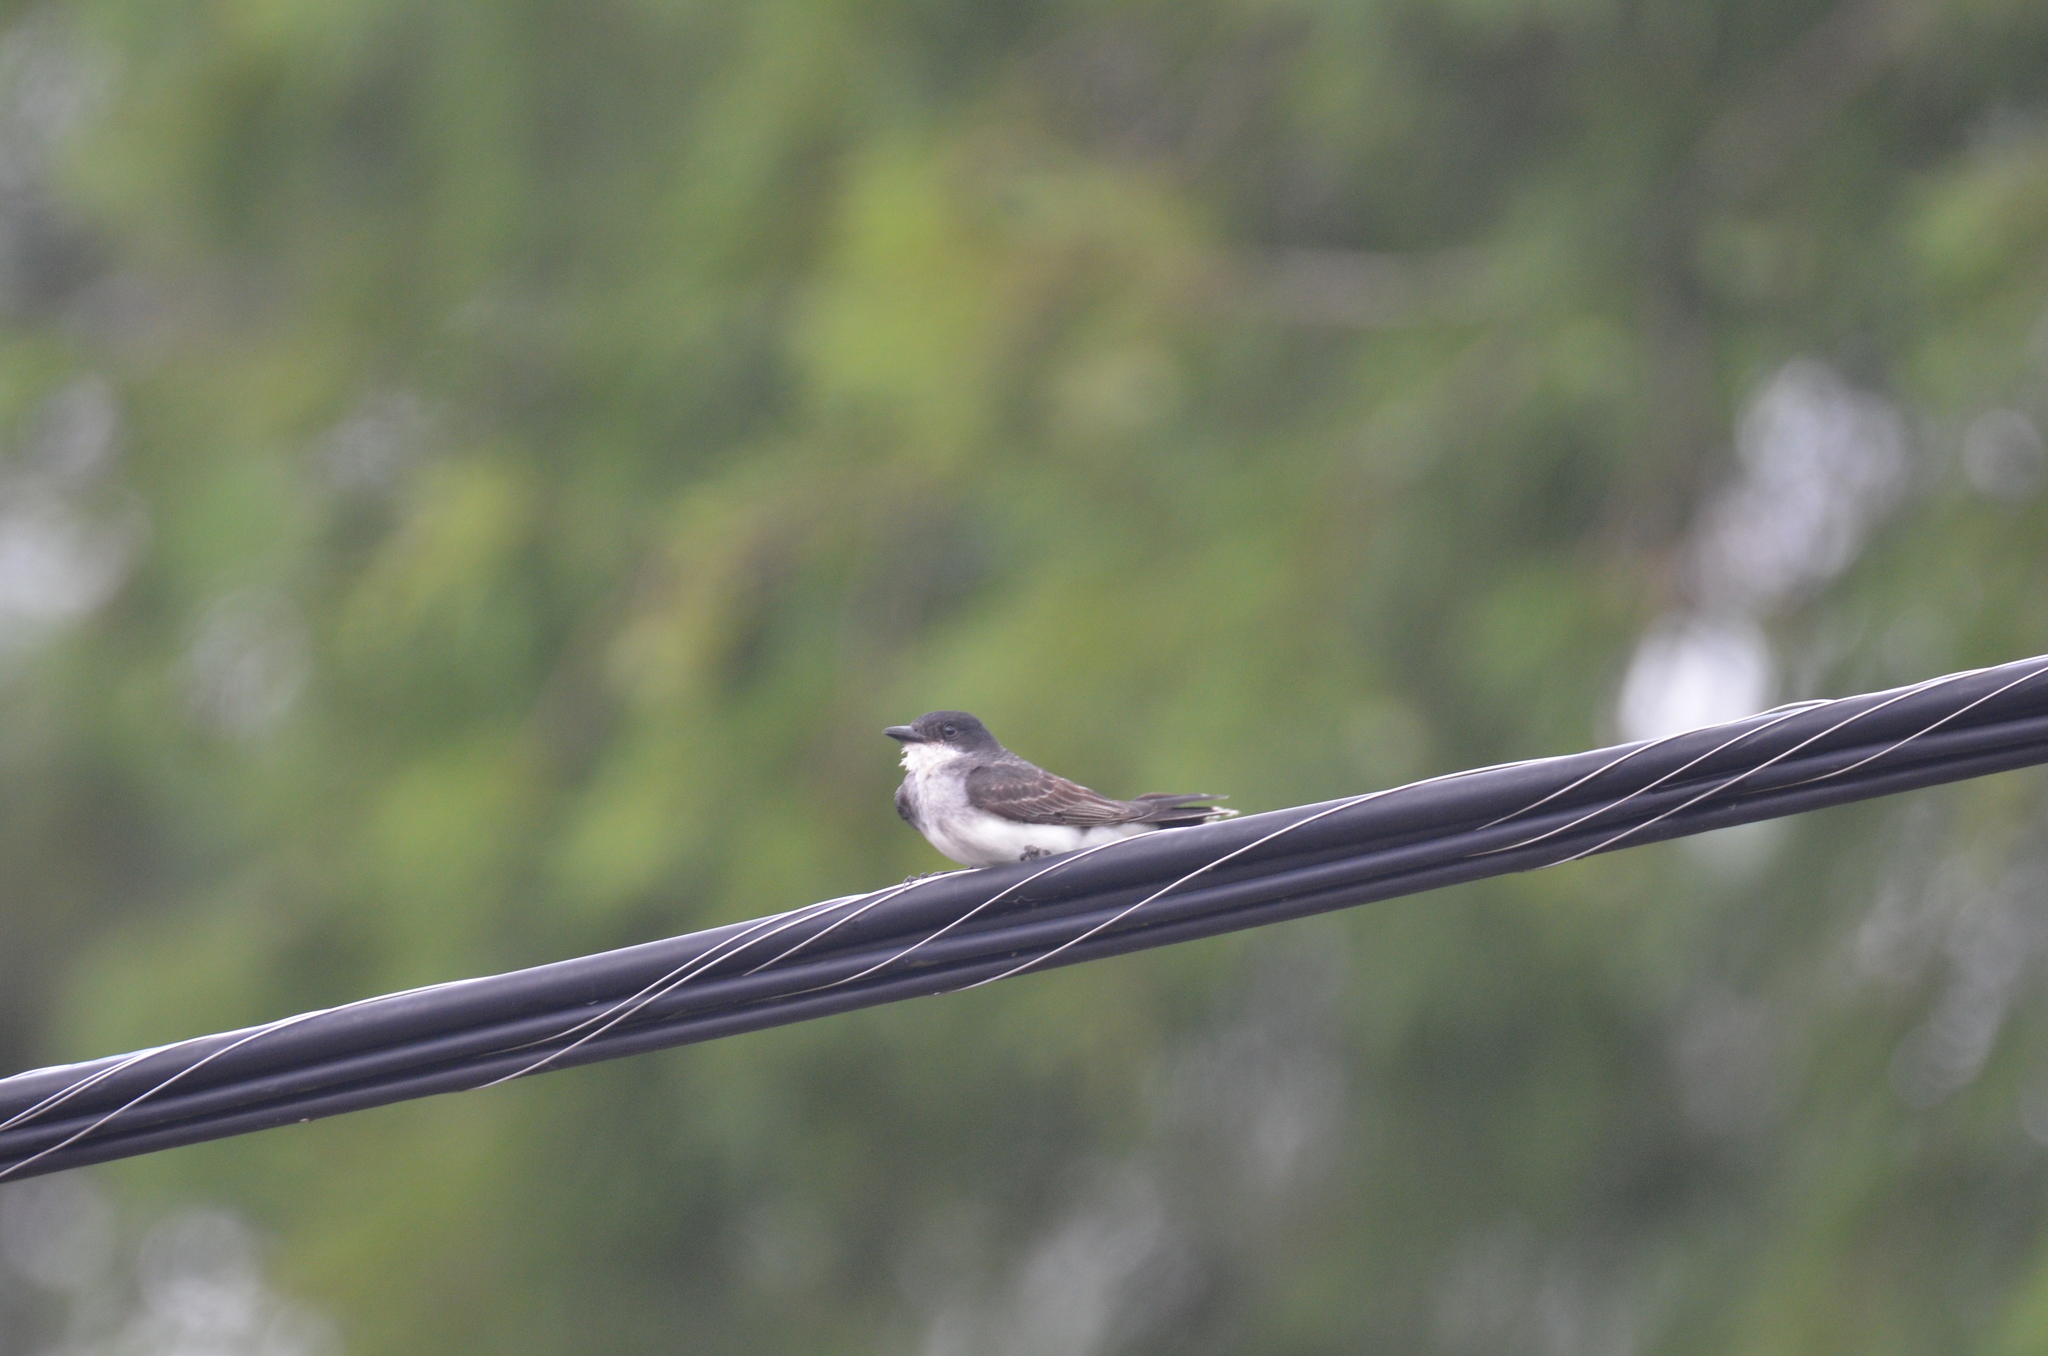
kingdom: Animalia
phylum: Chordata
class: Aves
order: Passeriformes
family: Tyrannidae
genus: Tyrannus
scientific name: Tyrannus tyrannus
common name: Eastern kingbird
